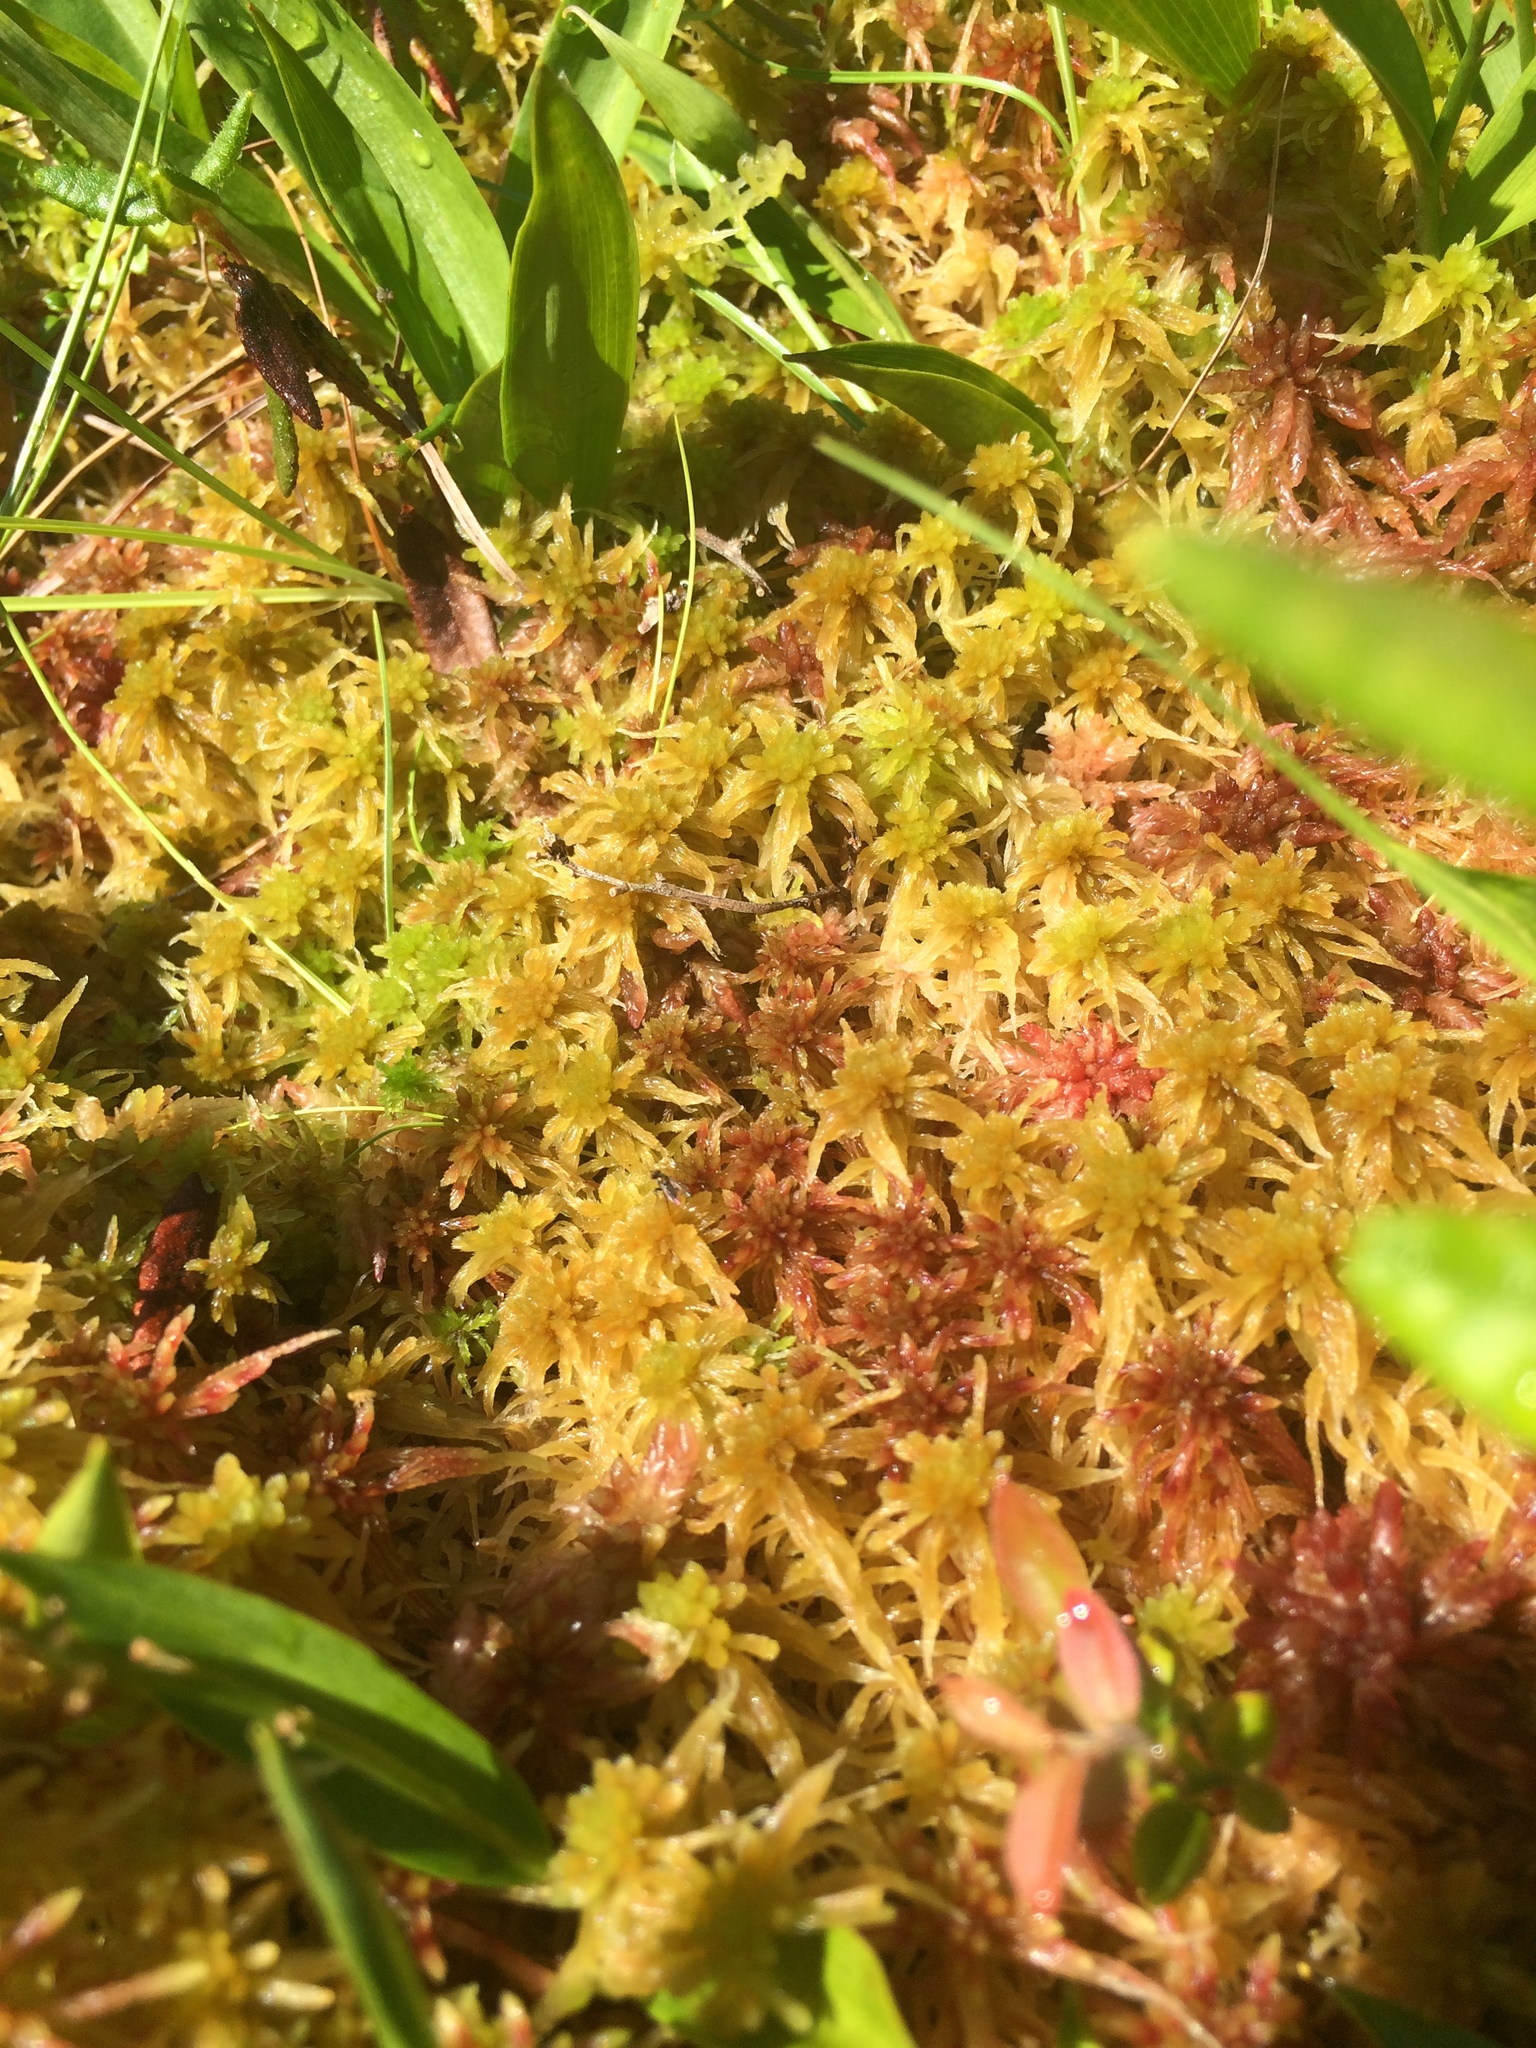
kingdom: Plantae
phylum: Bryophyta
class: Sphagnopsida
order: Sphagnales
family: Sphagnaceae
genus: Sphagnum
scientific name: Sphagnum angustifolium
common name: Narrow-leaved peat moss
